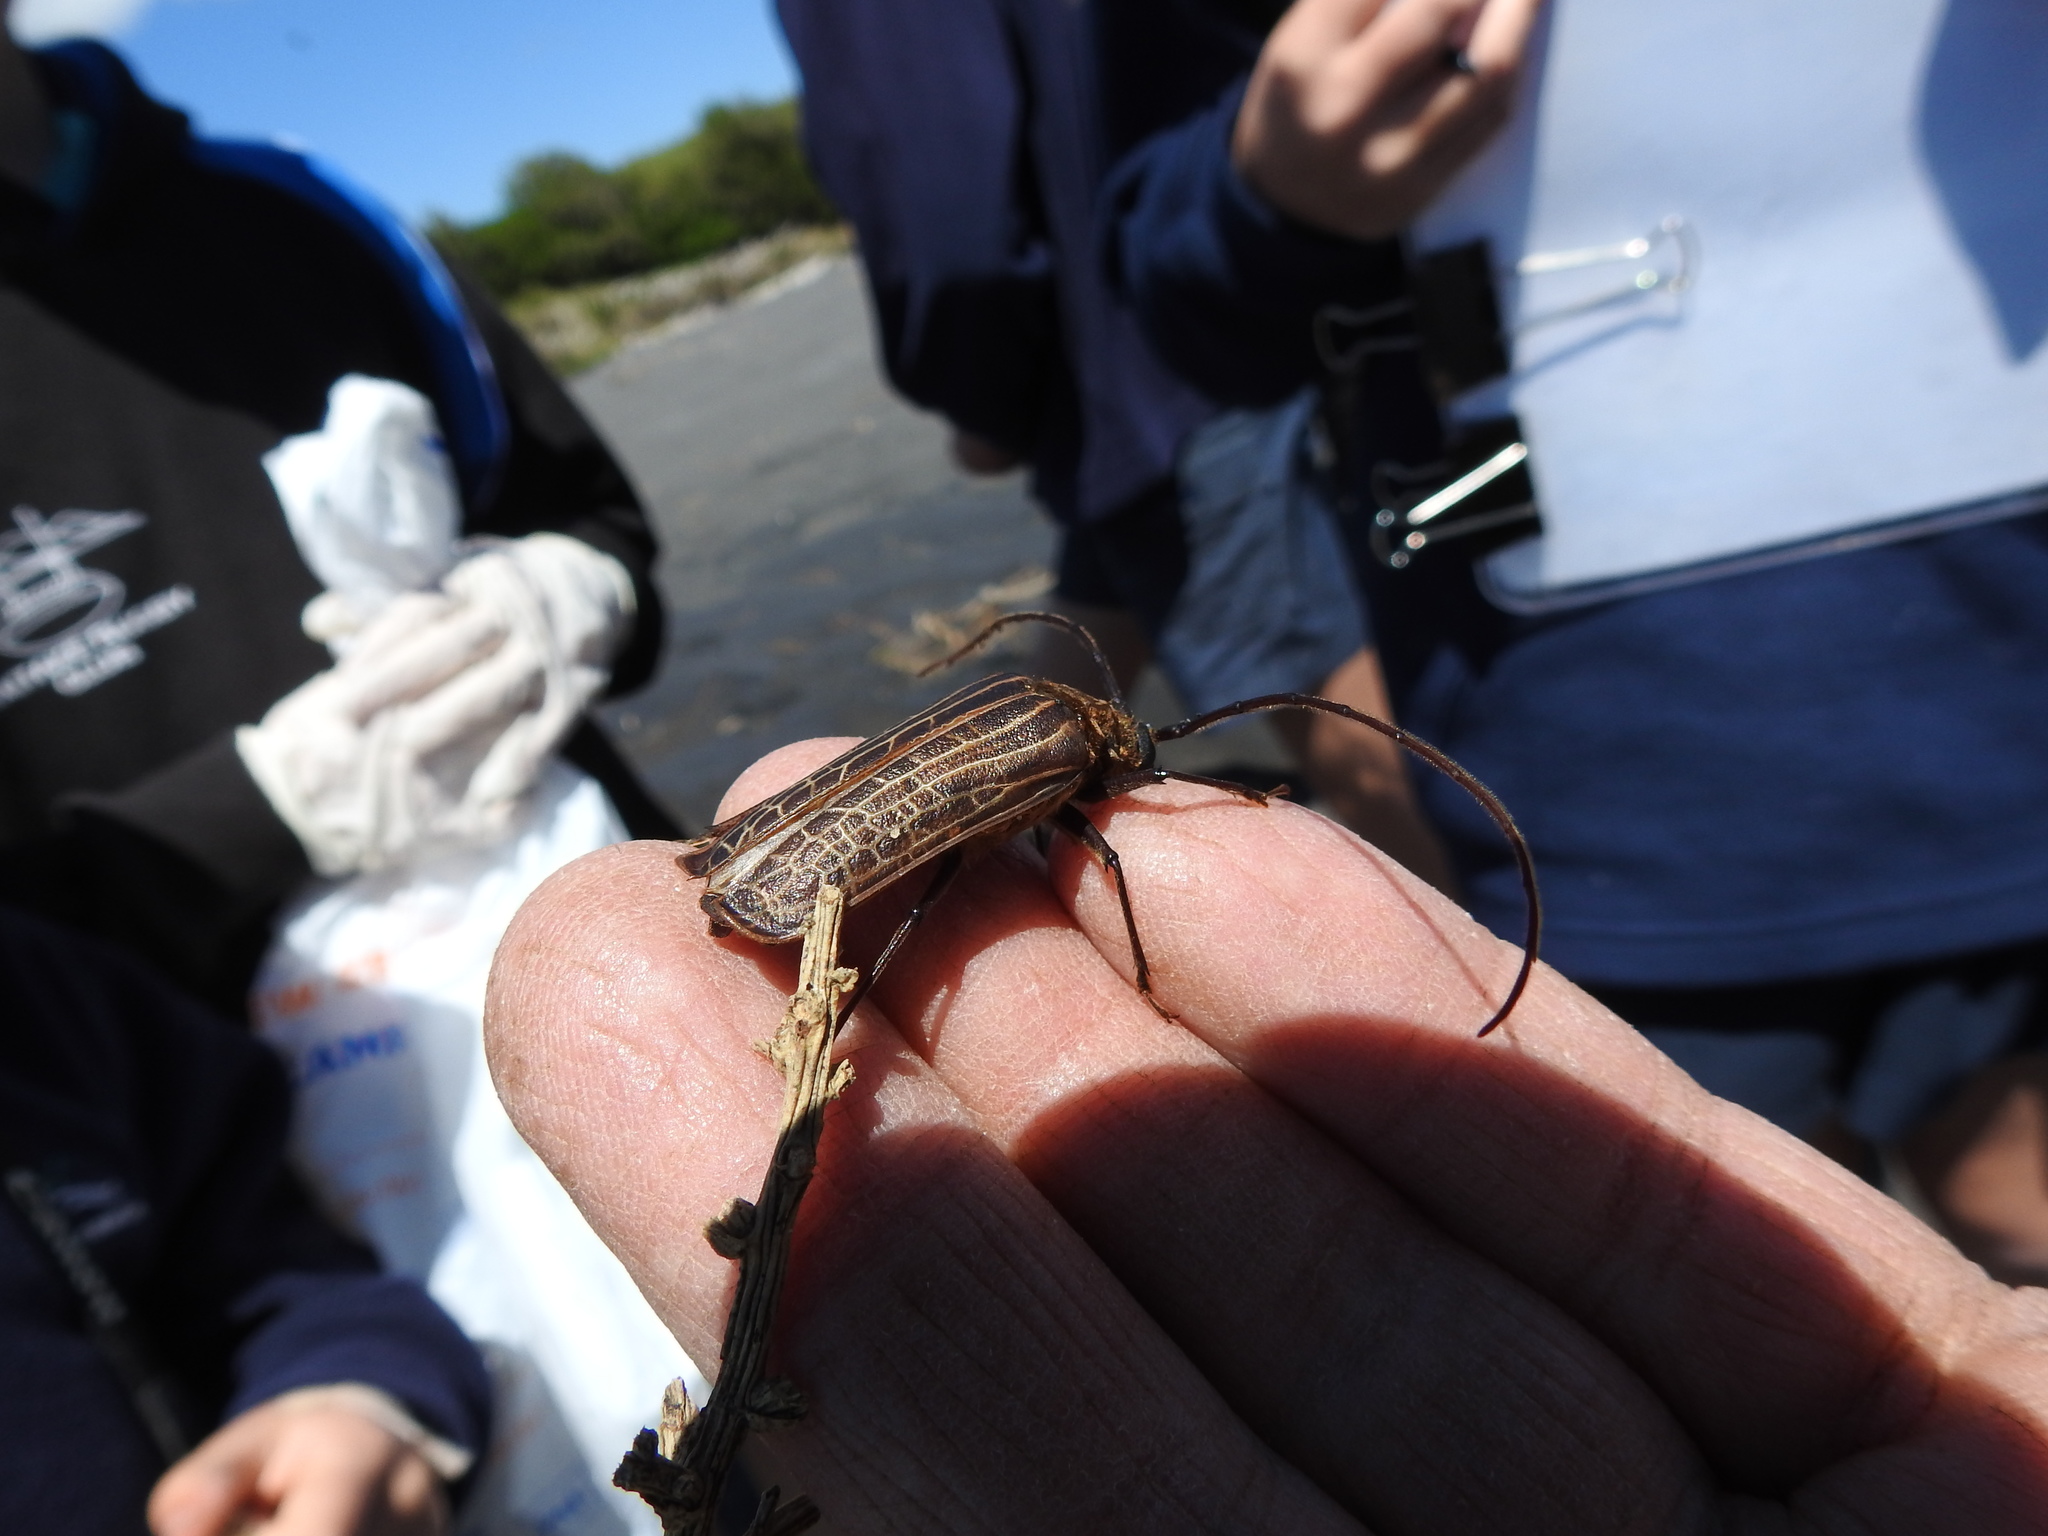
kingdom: Animalia
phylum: Arthropoda
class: Insecta
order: Coleoptera
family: Cerambycidae
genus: Prionoplus
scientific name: Prionoplus reticularis
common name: Huhu beetle
